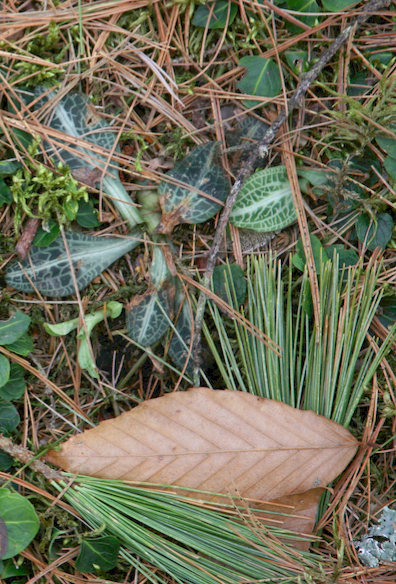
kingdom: Plantae
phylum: Tracheophyta
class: Liliopsida
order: Asparagales
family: Orchidaceae
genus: Goodyera
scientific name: Goodyera pubescens
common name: Downy rattlesnake-plantain
